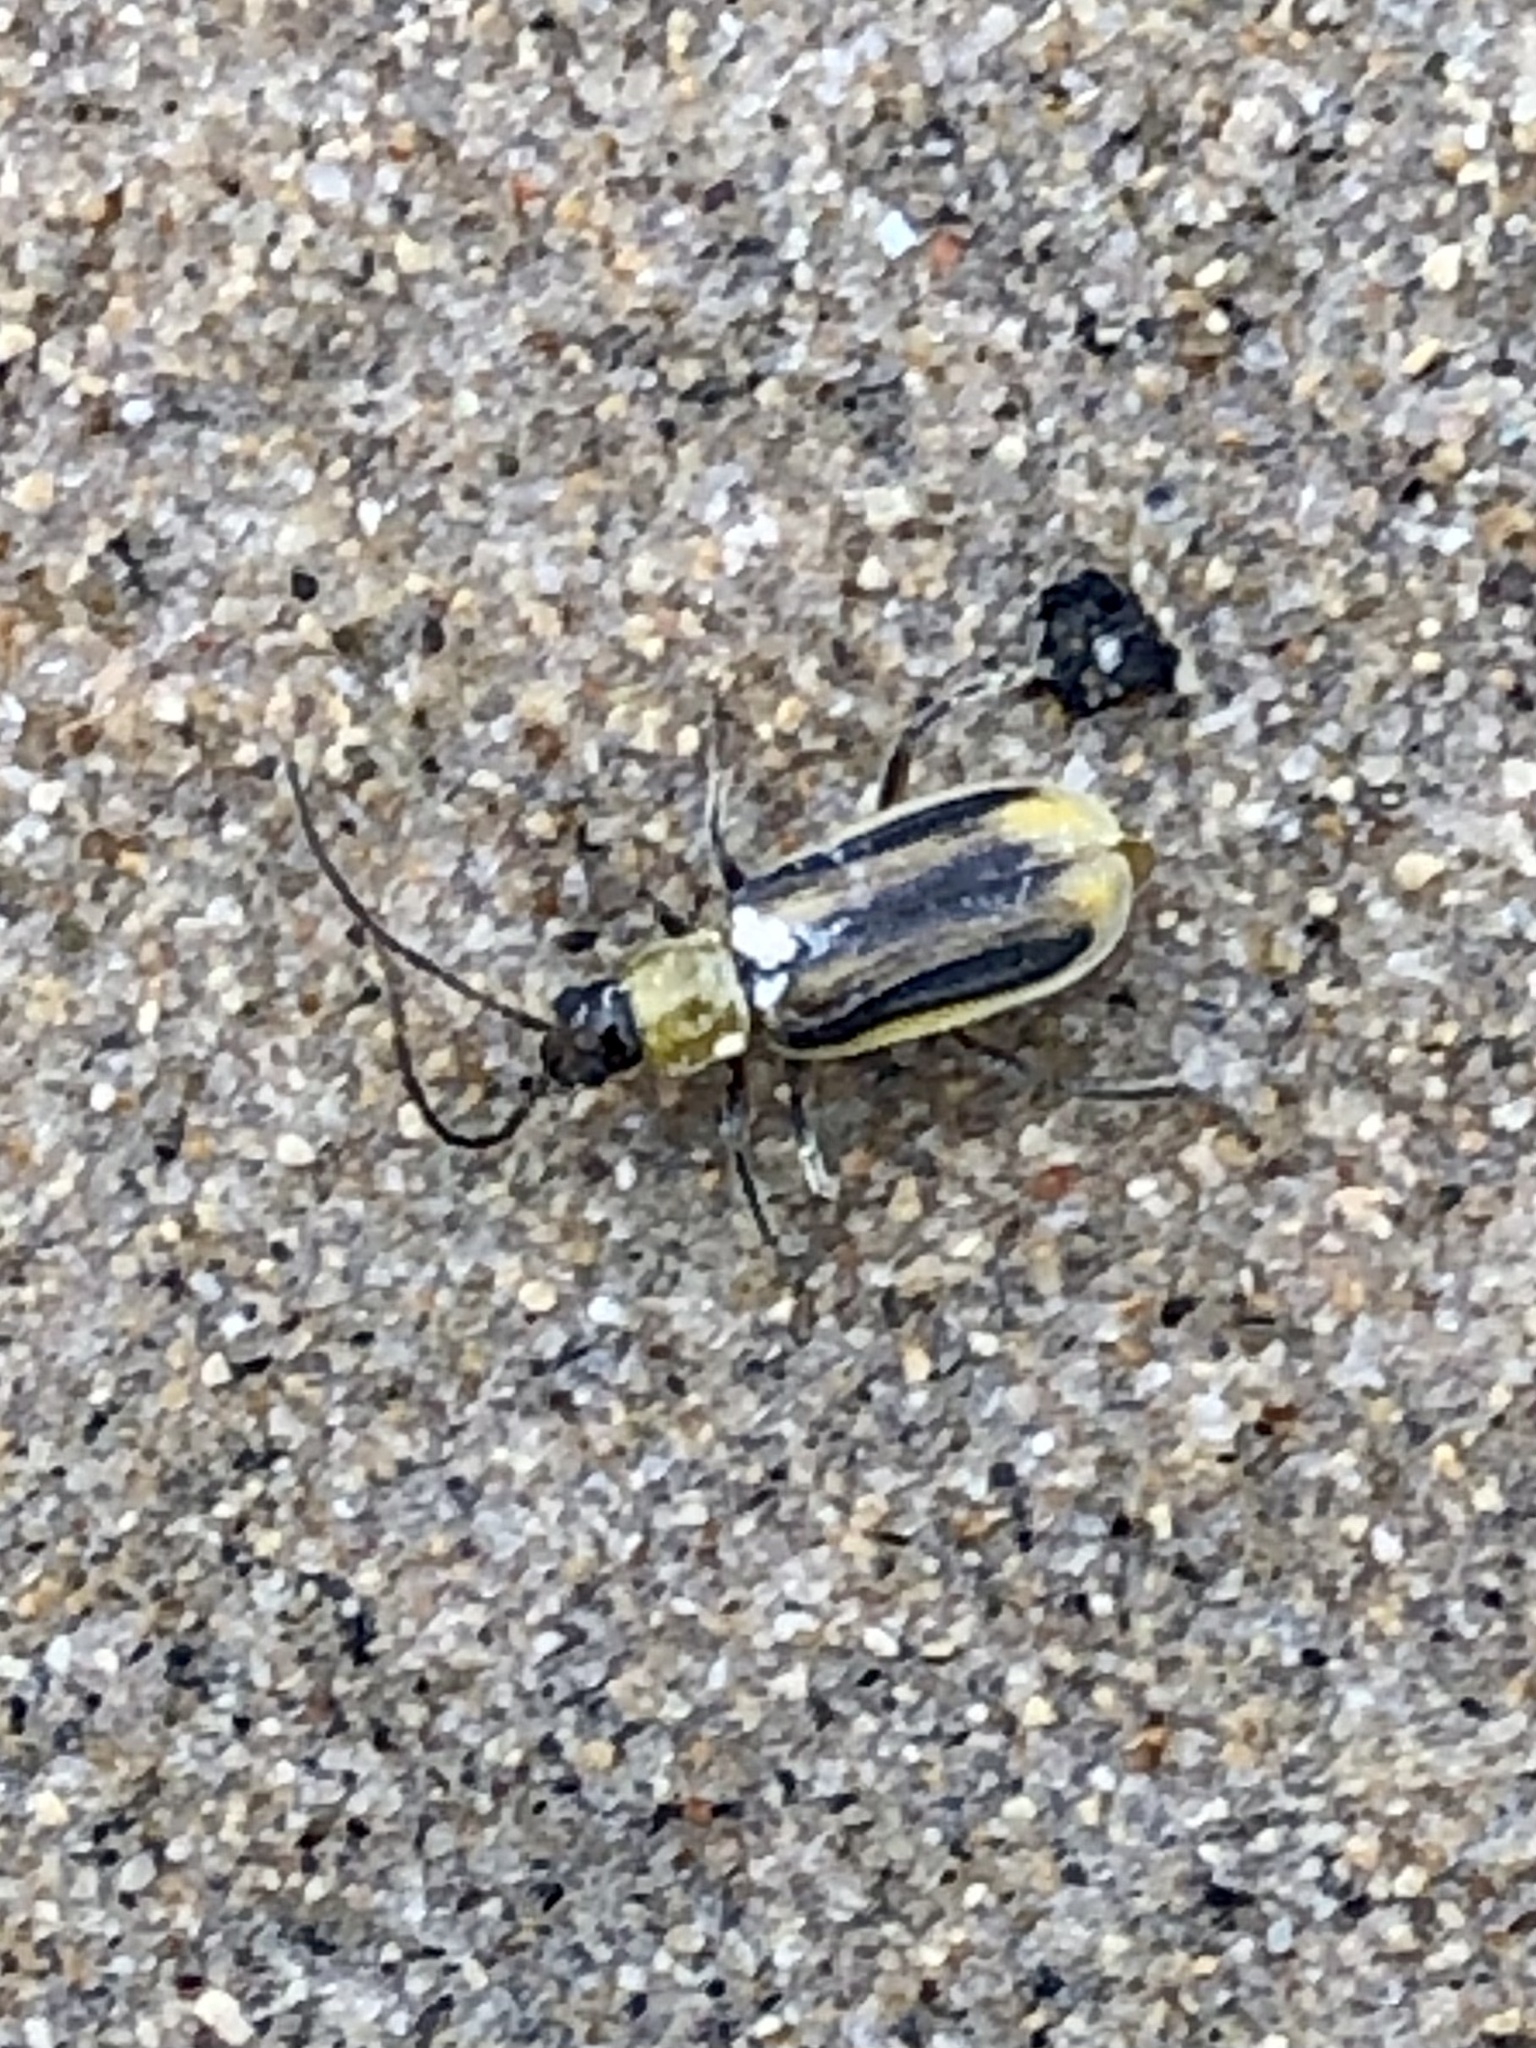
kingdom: Animalia
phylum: Arthropoda
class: Insecta
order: Coleoptera
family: Chrysomelidae
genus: Diabrotica
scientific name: Diabrotica virgifera
